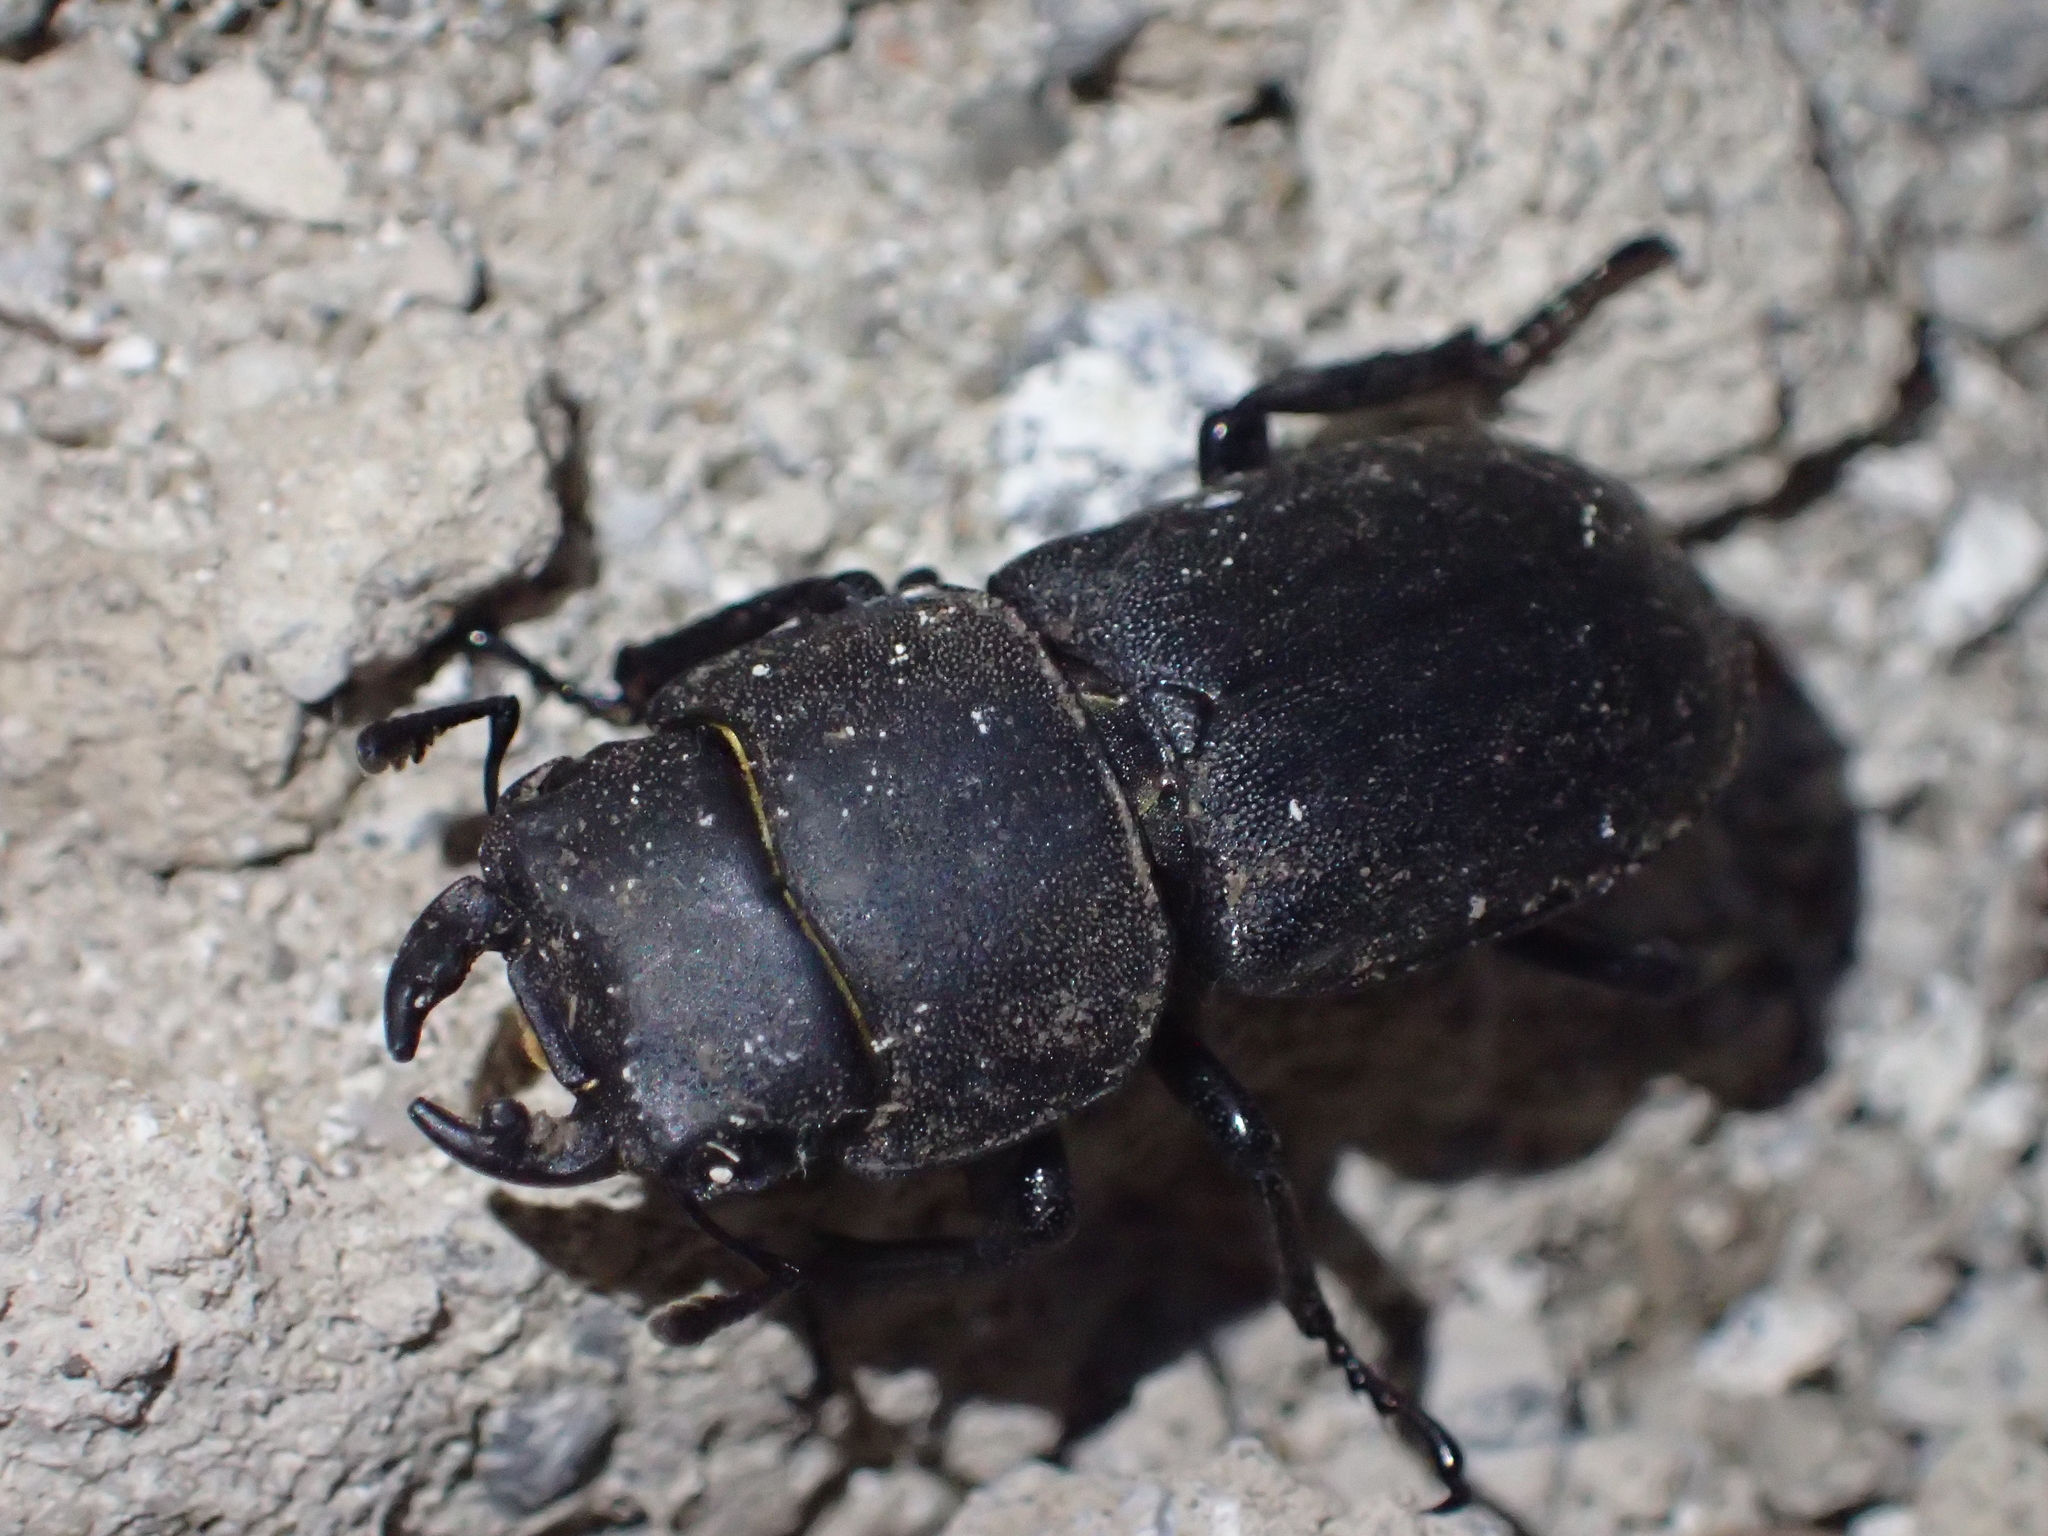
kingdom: Animalia
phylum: Arthropoda
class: Insecta
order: Coleoptera
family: Lucanidae
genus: Dorcus
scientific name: Dorcus parallelipipedus
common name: Lesser stag beetle
